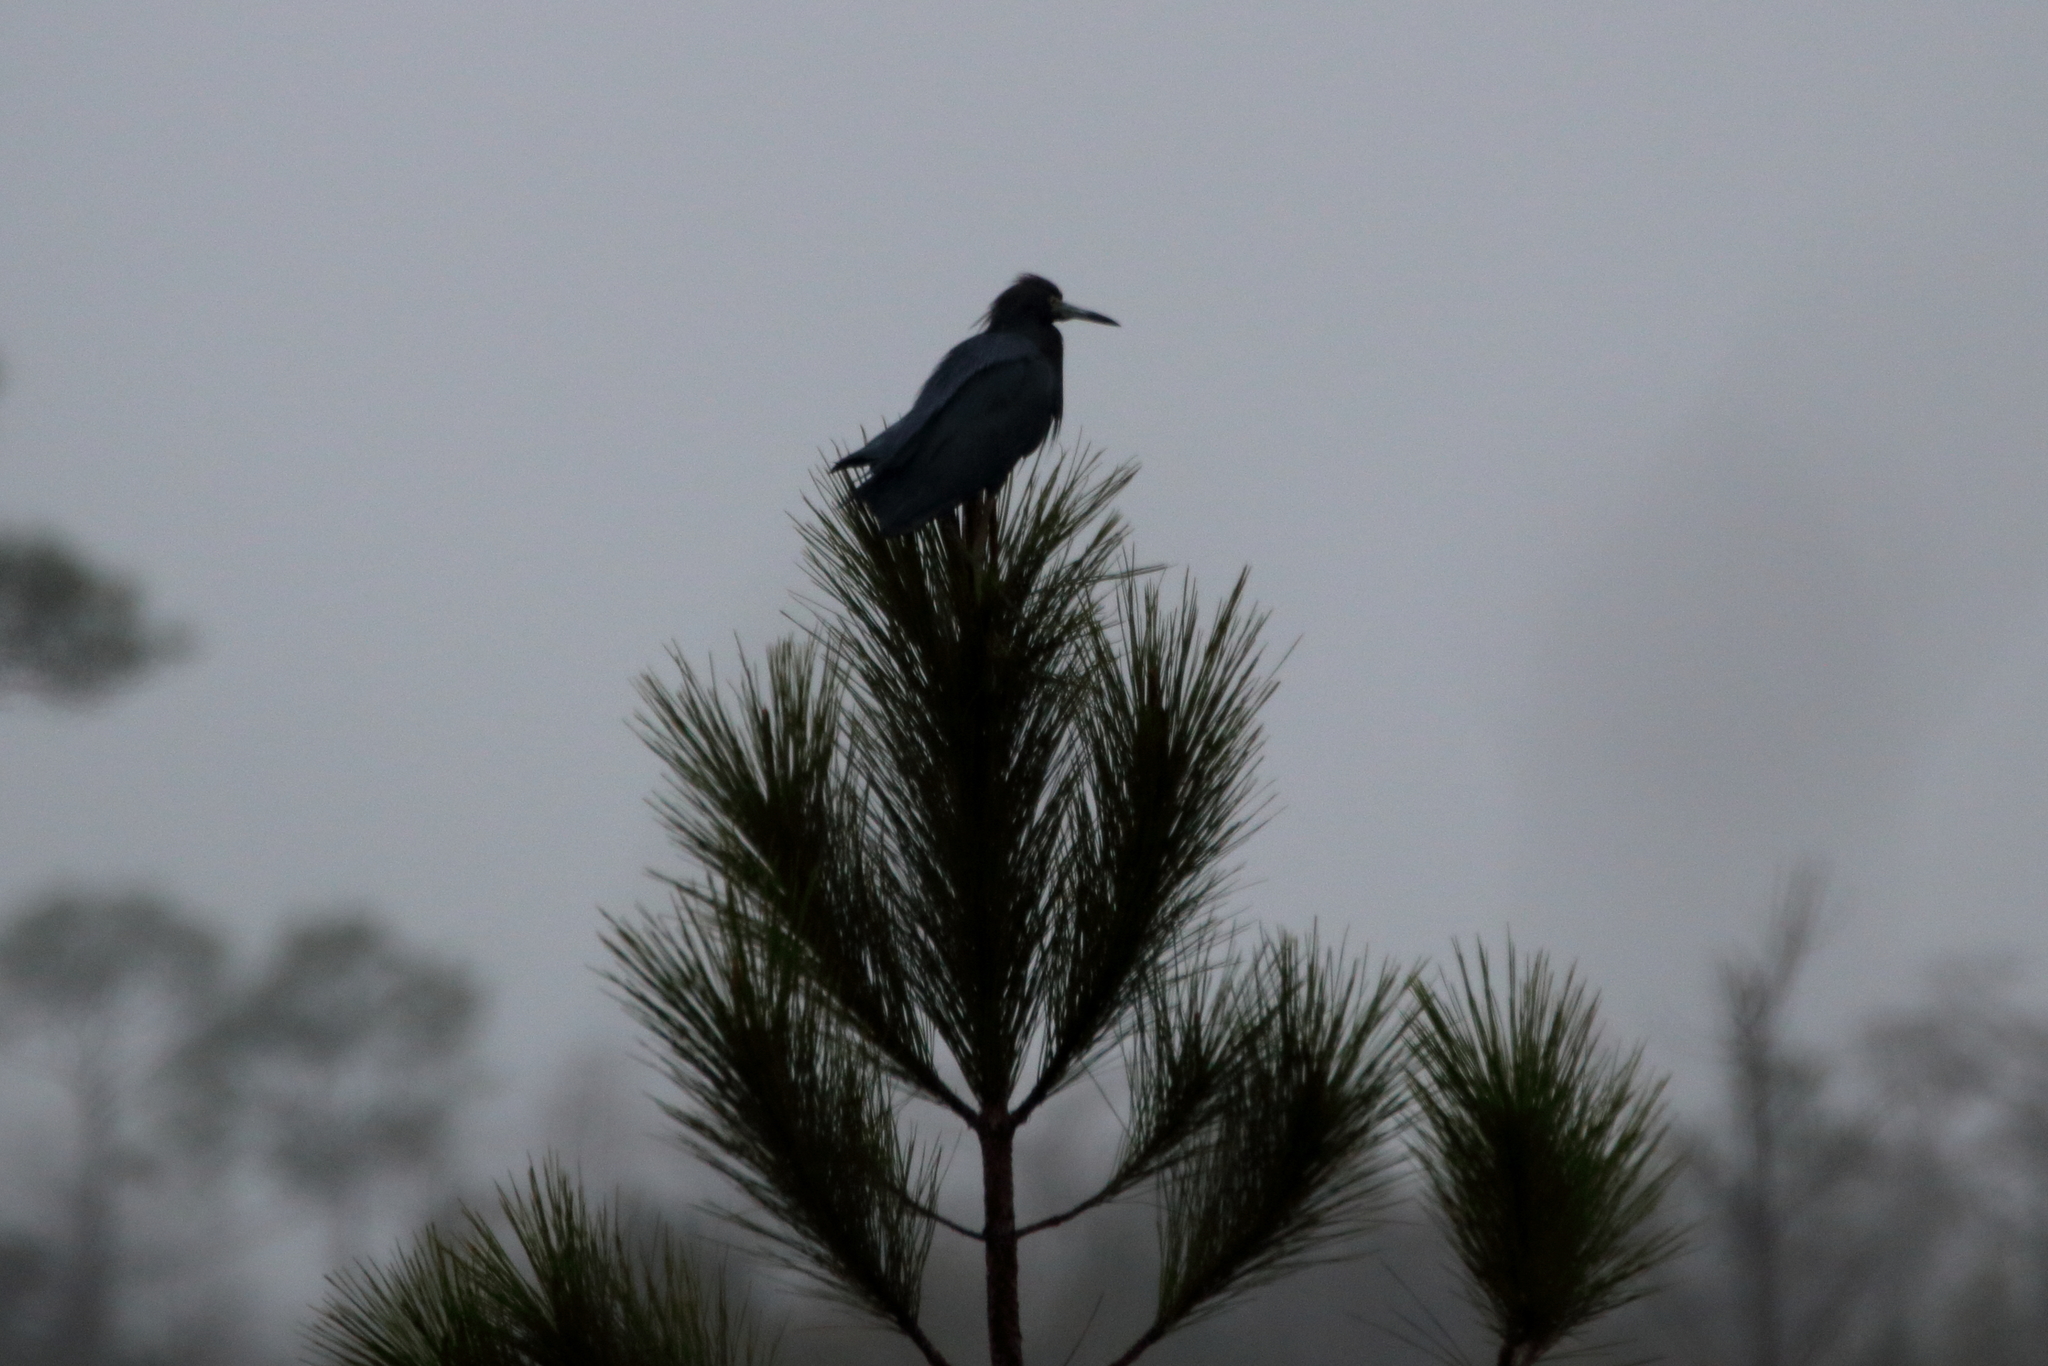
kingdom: Animalia
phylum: Chordata
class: Aves
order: Pelecaniformes
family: Ardeidae
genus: Egretta
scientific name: Egretta caerulea
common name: Little blue heron
